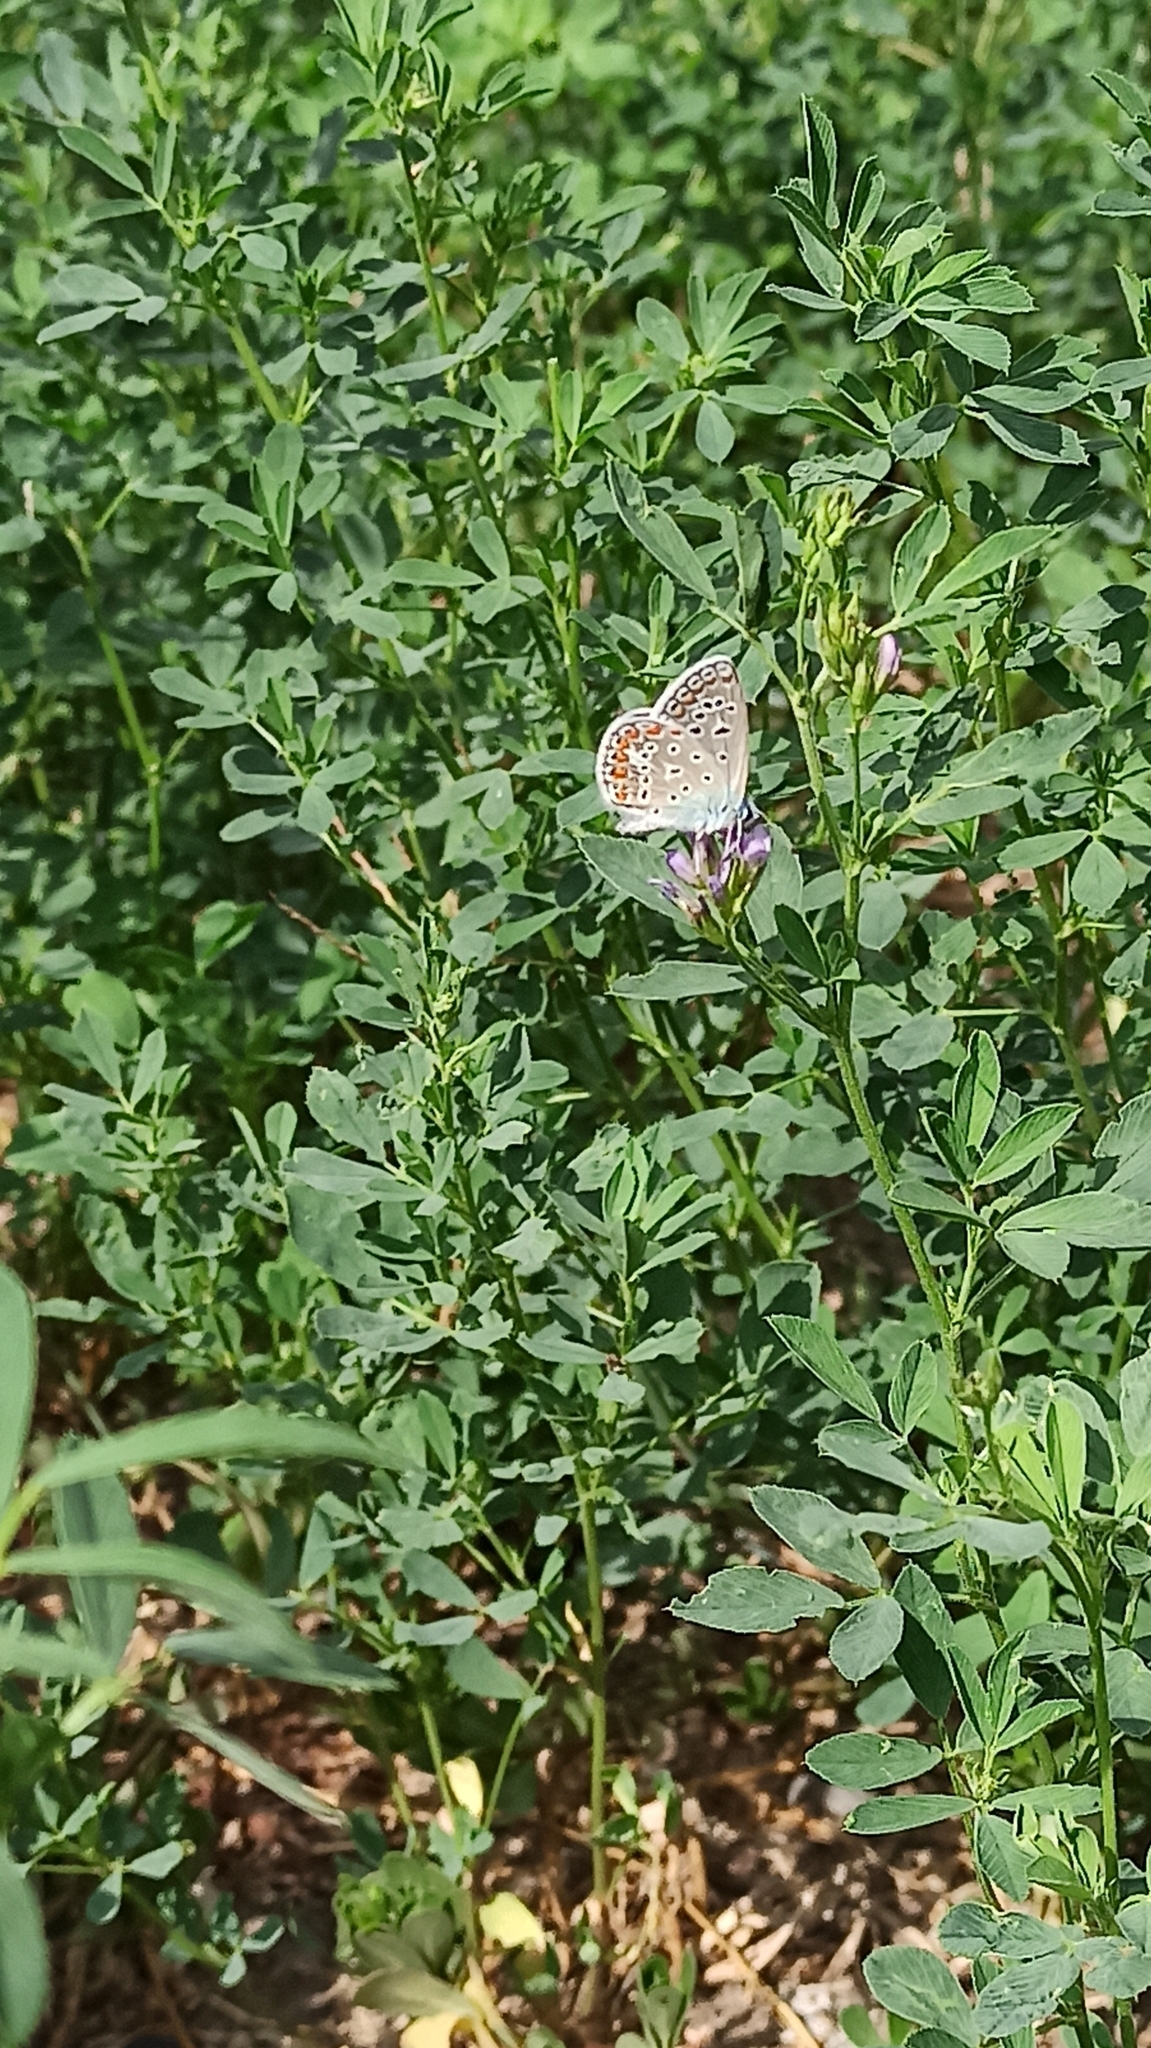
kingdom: Animalia
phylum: Arthropoda
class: Insecta
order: Lepidoptera
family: Lycaenidae
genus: Polyommatus
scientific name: Polyommatus icarus
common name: Common blue
